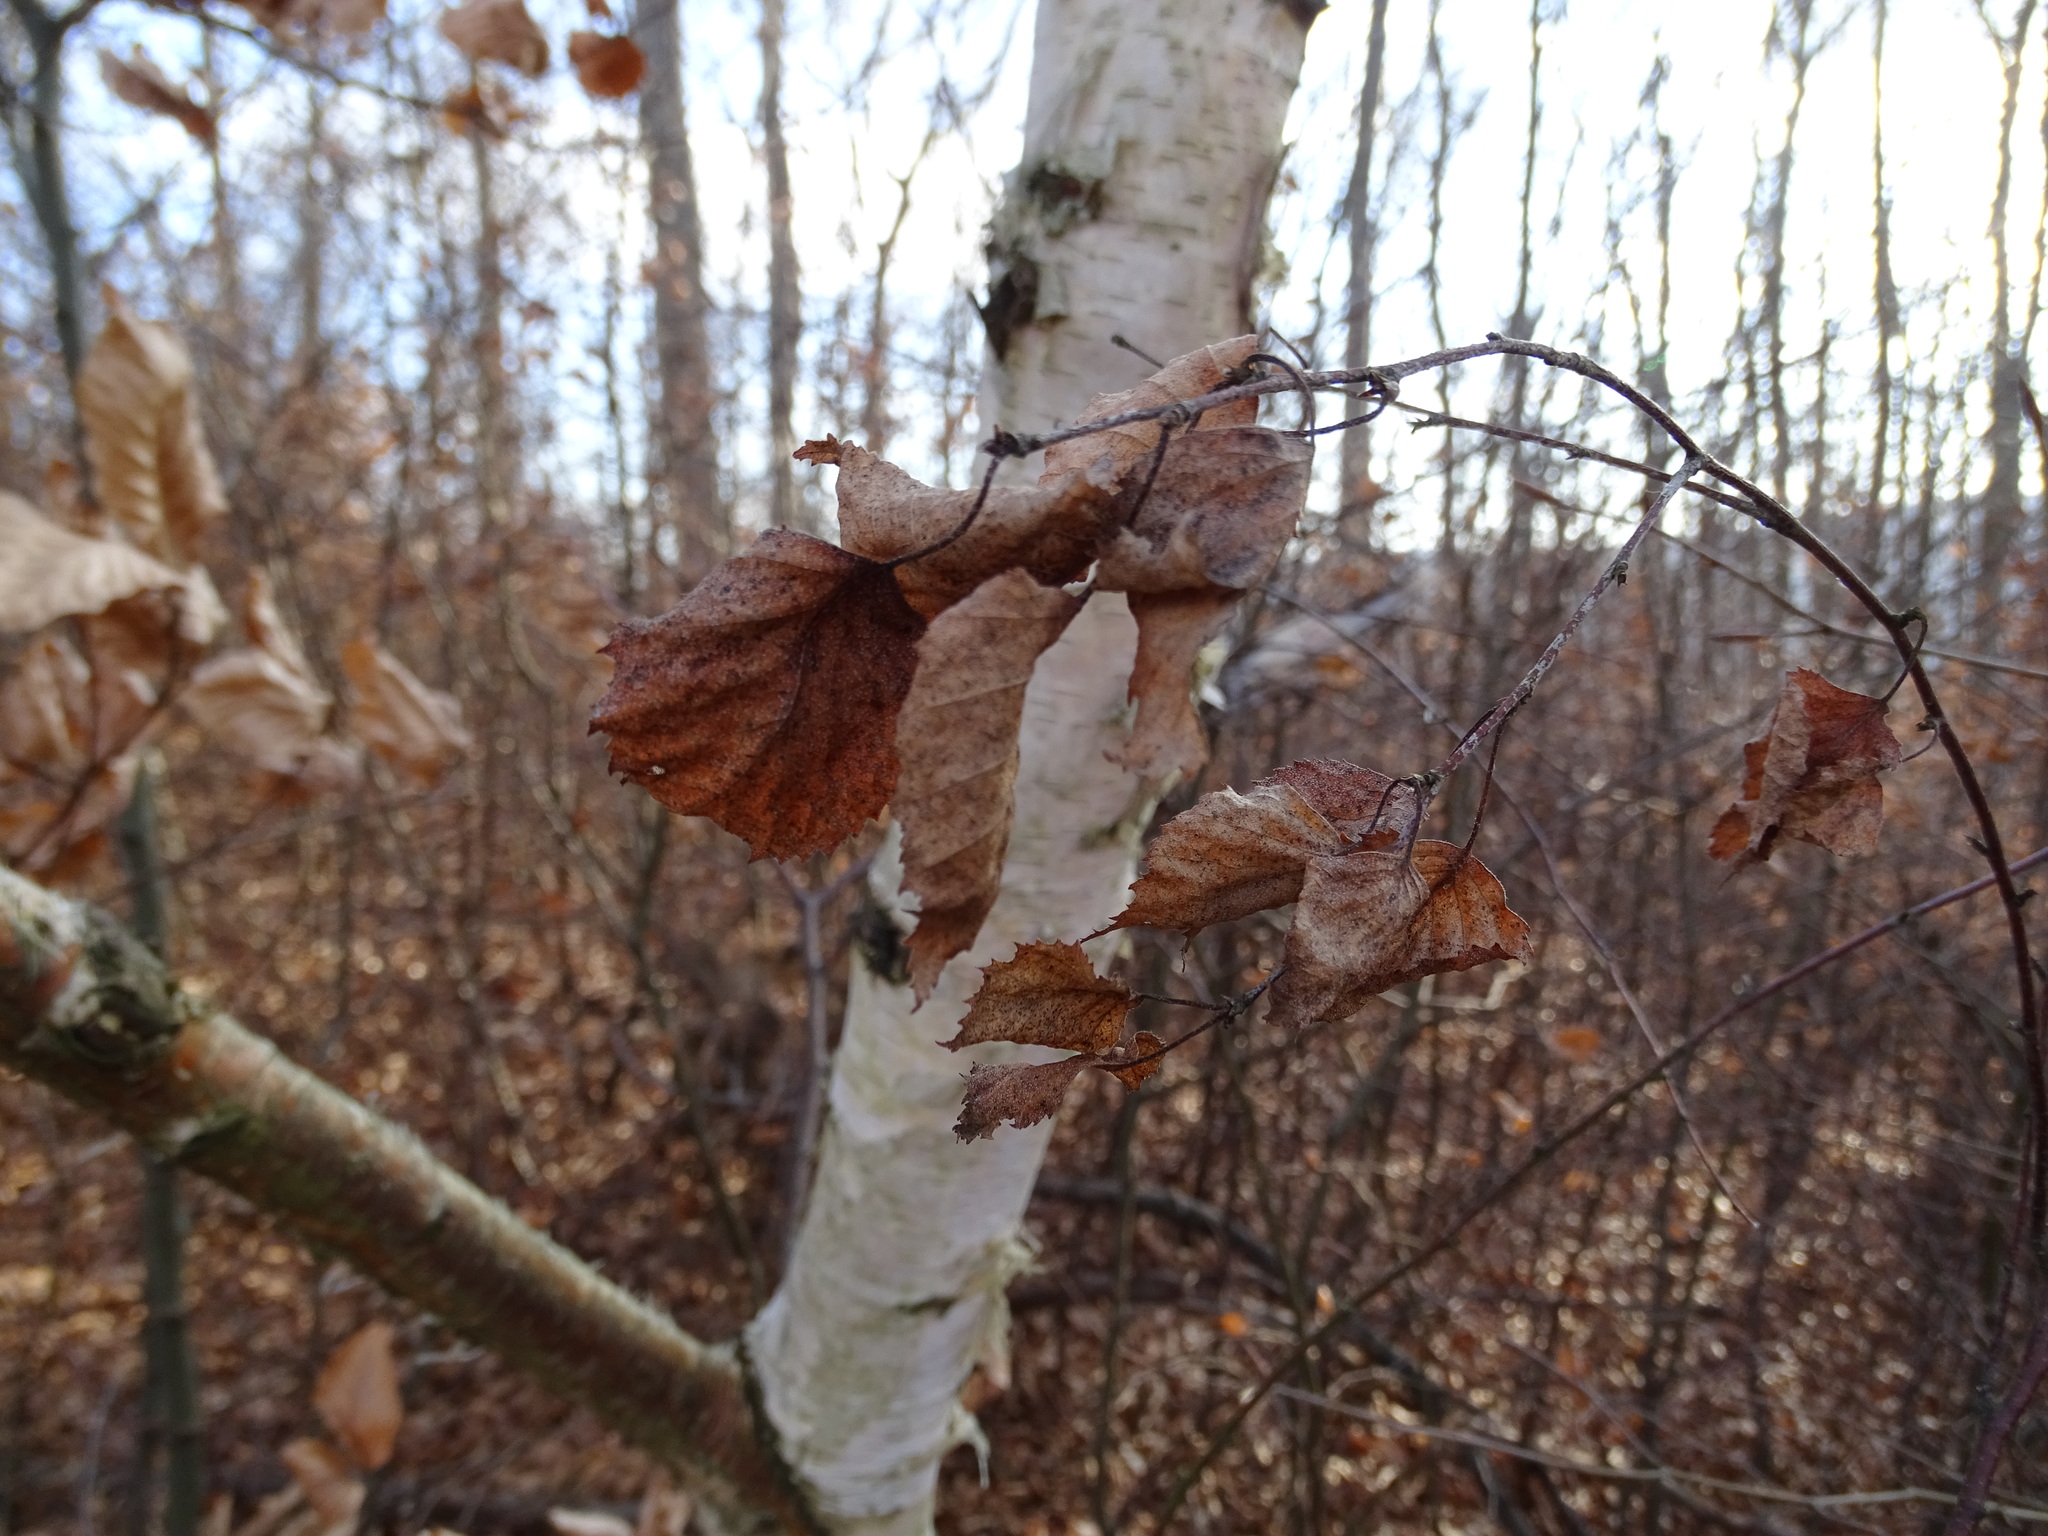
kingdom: Plantae
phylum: Tracheophyta
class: Magnoliopsida
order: Fagales
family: Betulaceae
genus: Betula
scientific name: Betula pendula
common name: Silver birch
